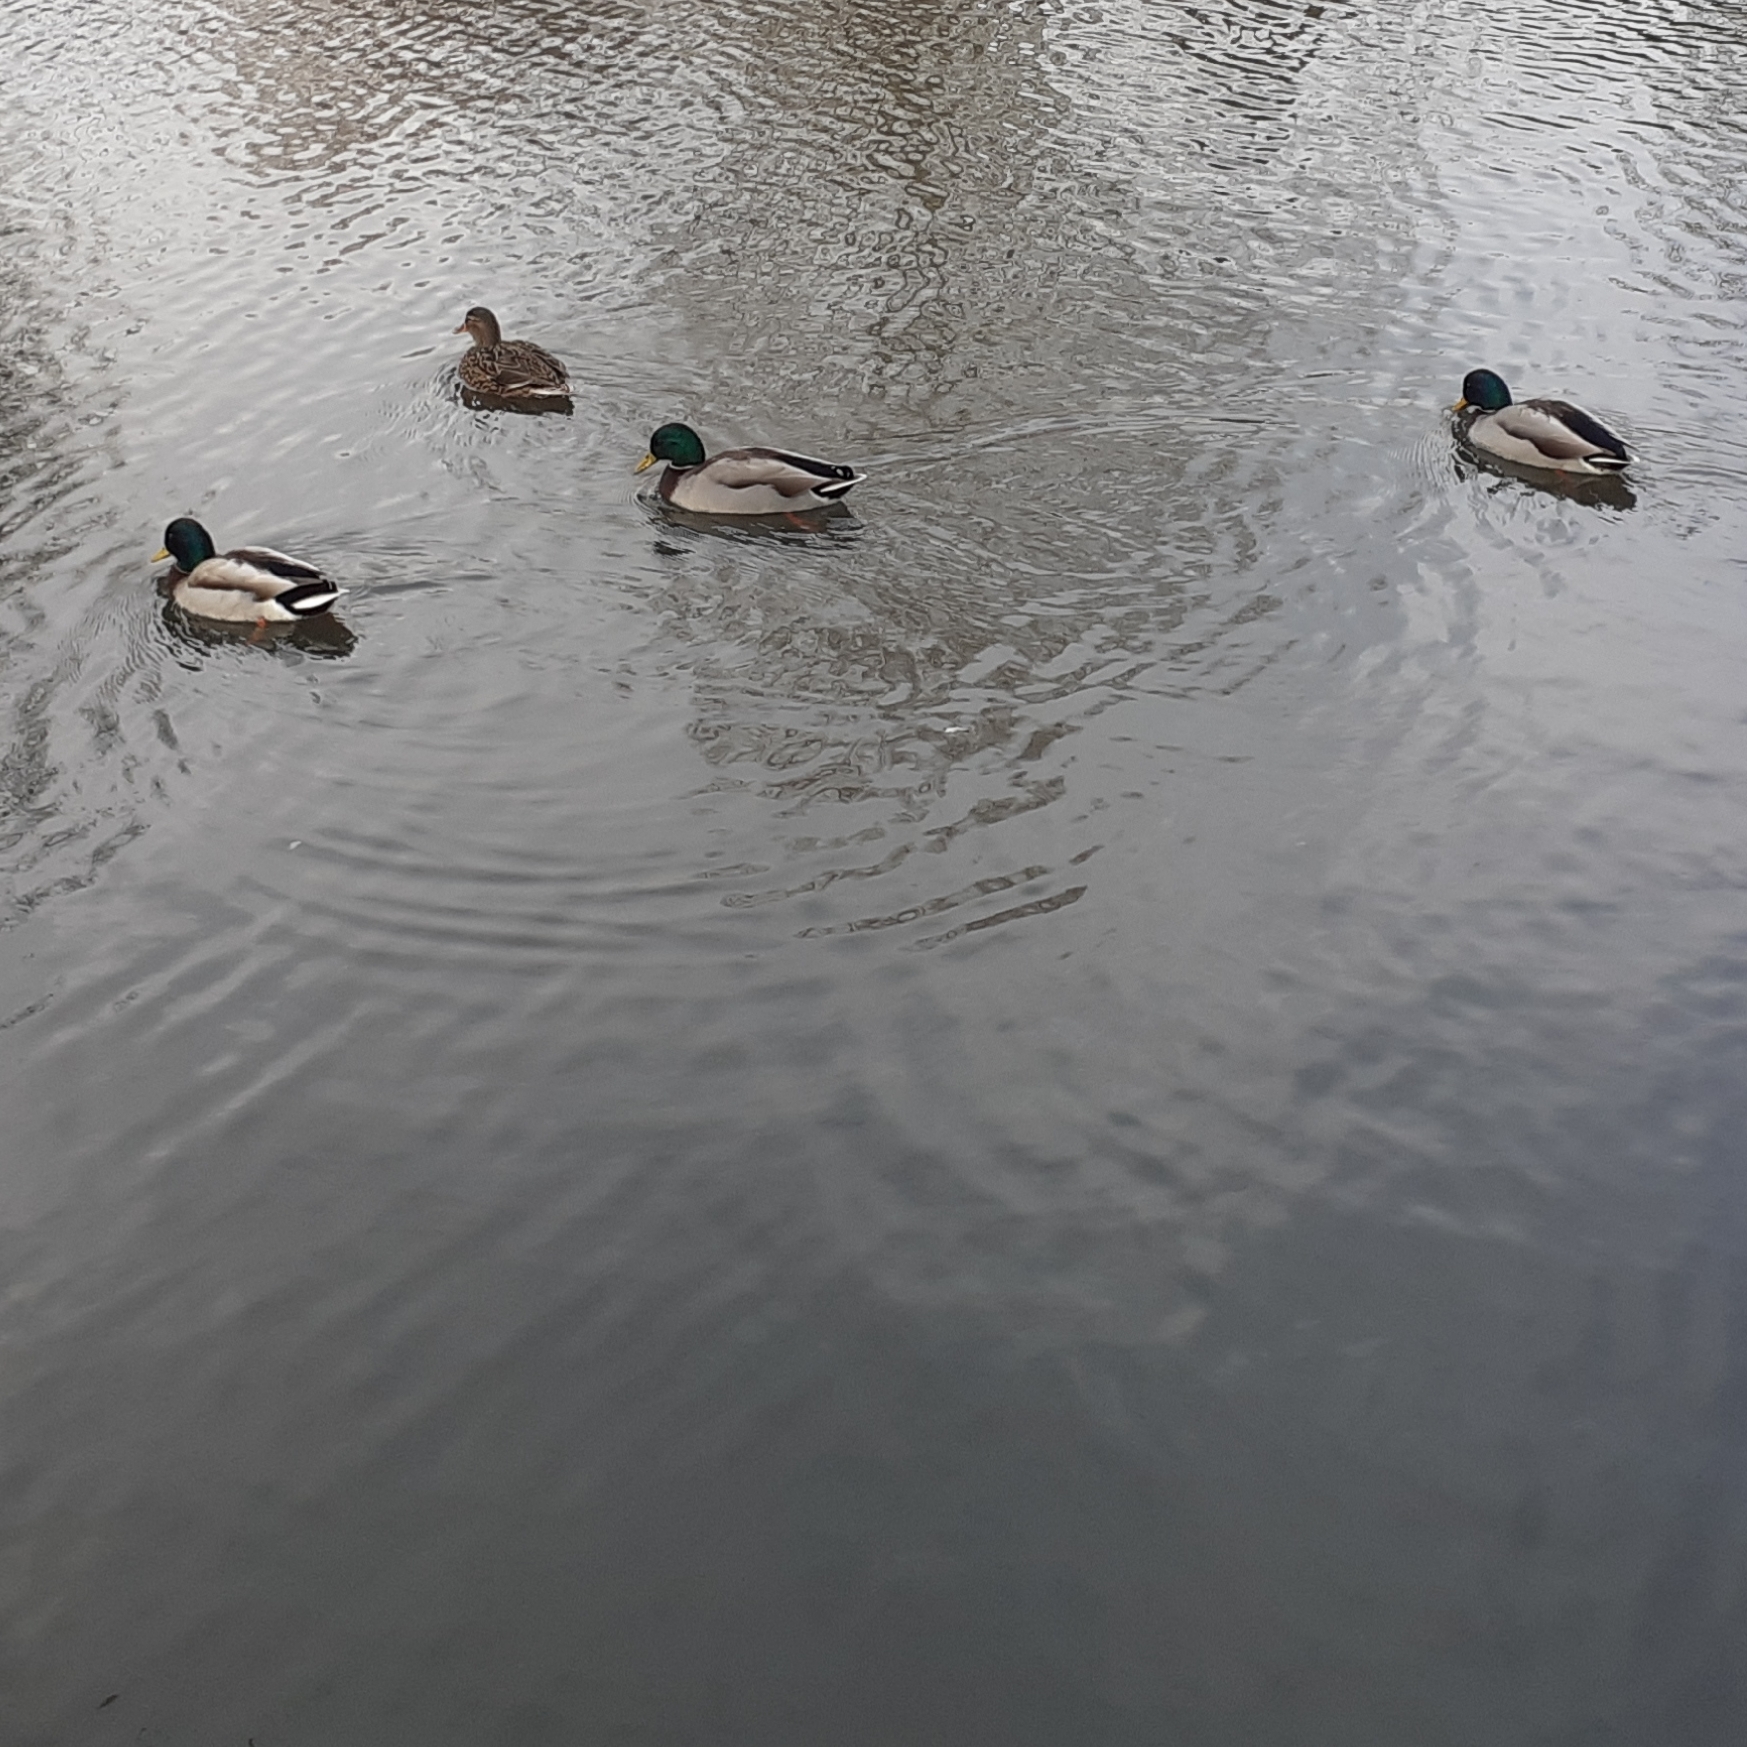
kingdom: Animalia
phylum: Chordata
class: Aves
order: Anseriformes
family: Anatidae
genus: Anas
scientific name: Anas platyrhynchos
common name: Mallard
